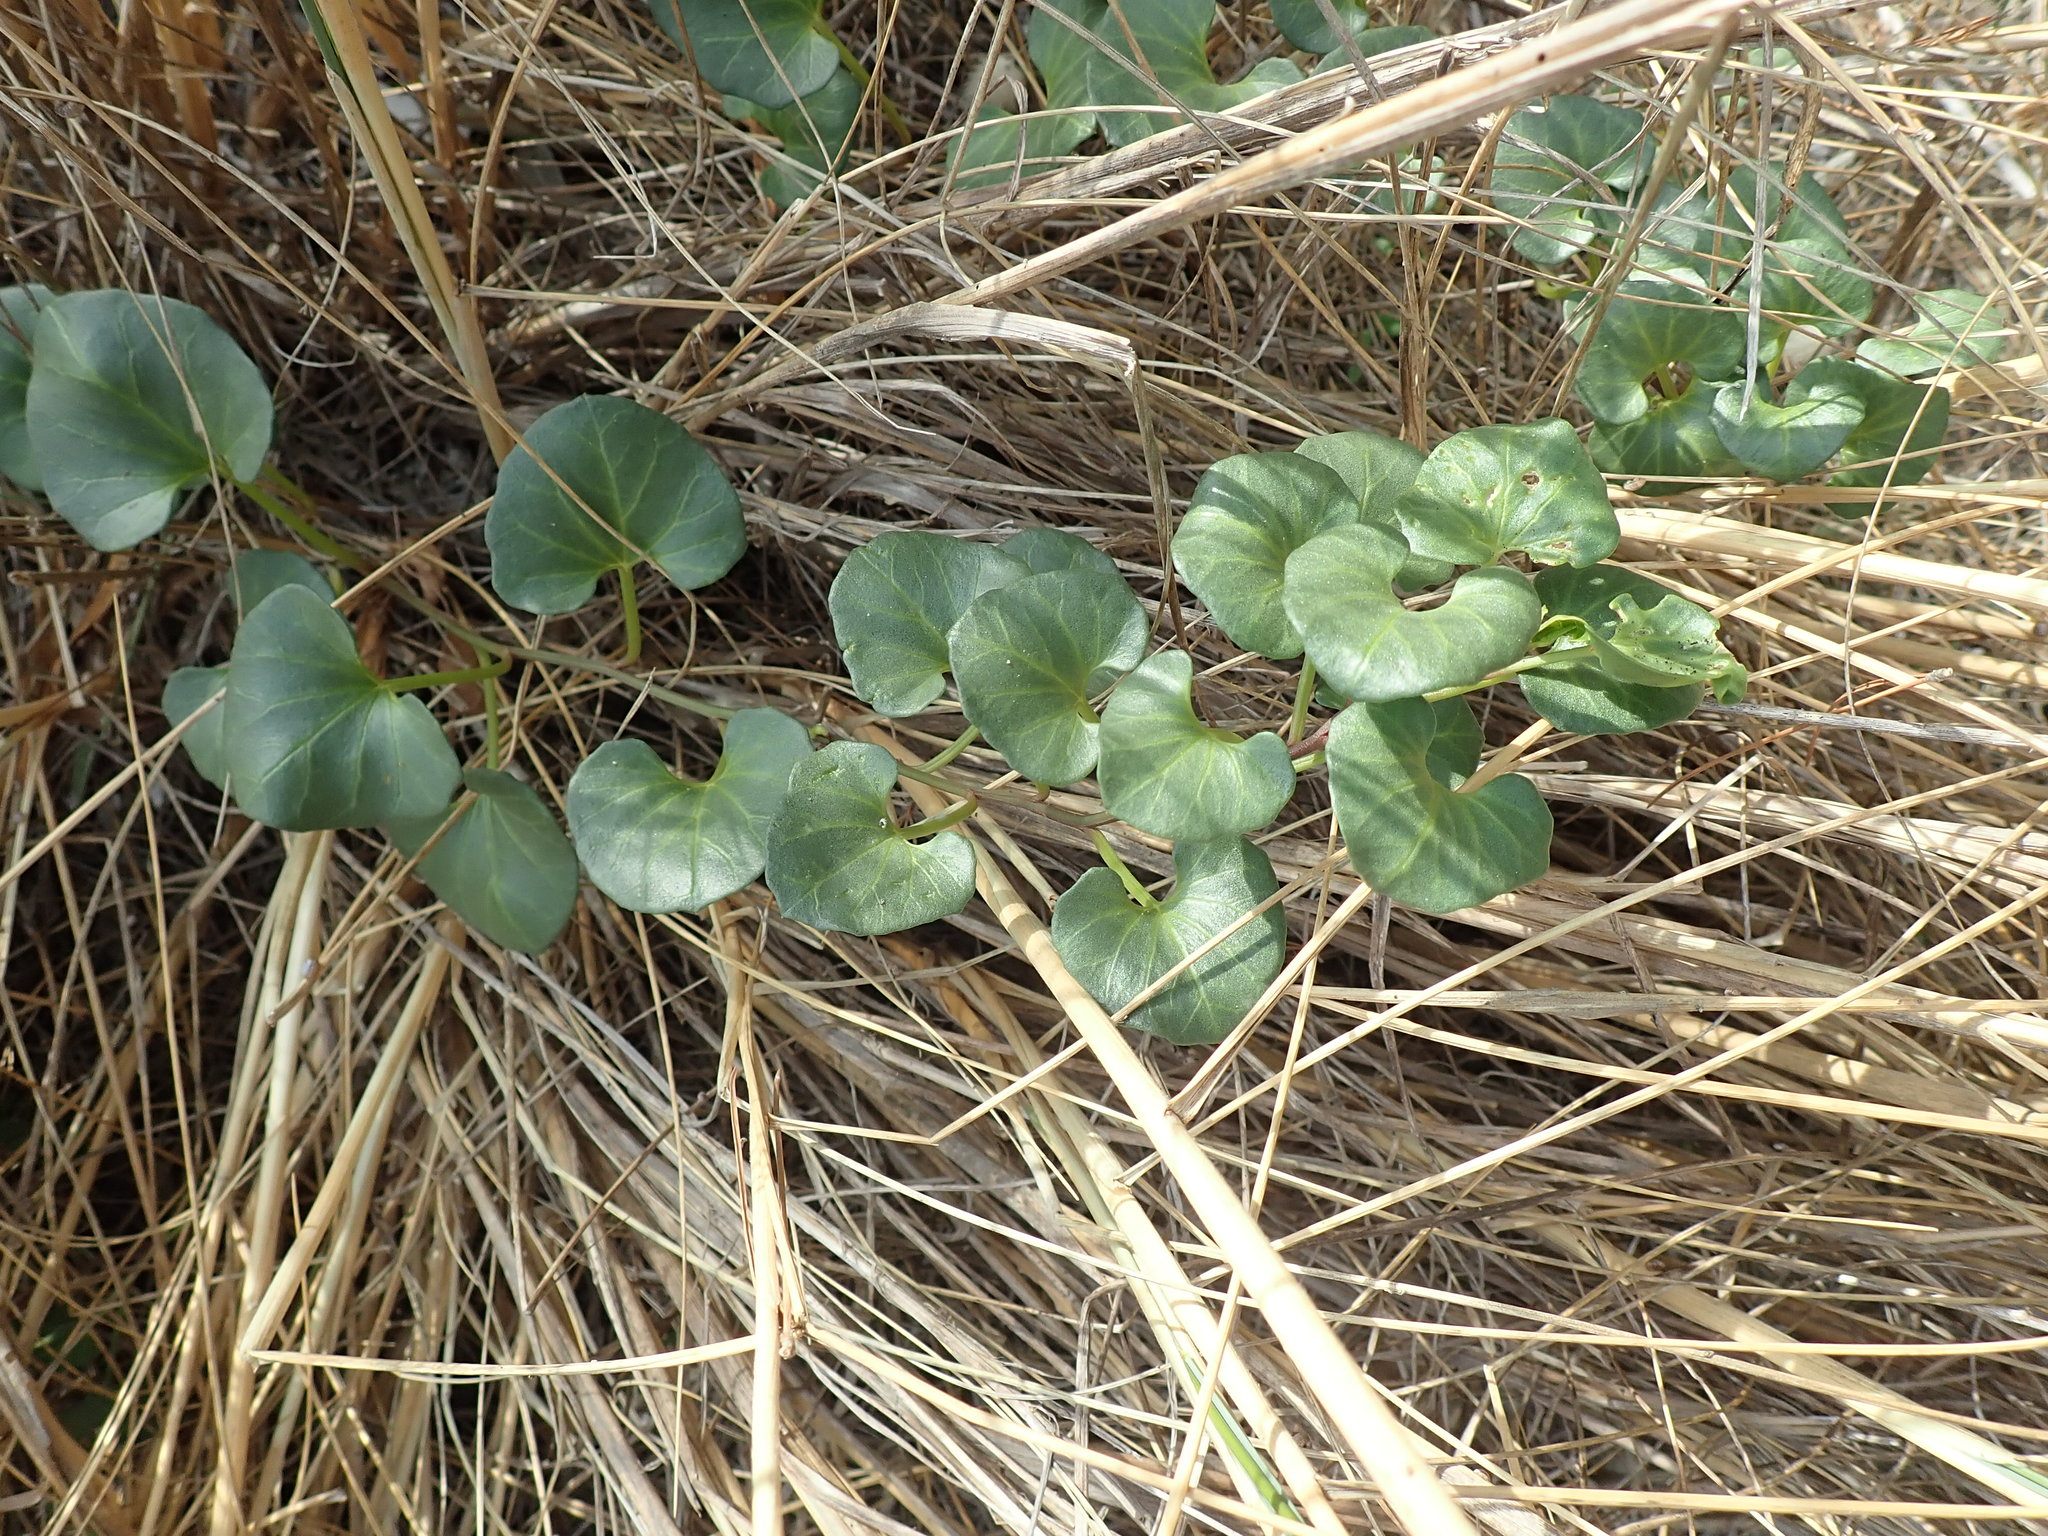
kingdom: Plantae
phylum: Tracheophyta
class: Magnoliopsida
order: Solanales
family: Convolvulaceae
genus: Calystegia
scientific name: Calystegia soldanella
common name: Sea bindweed
